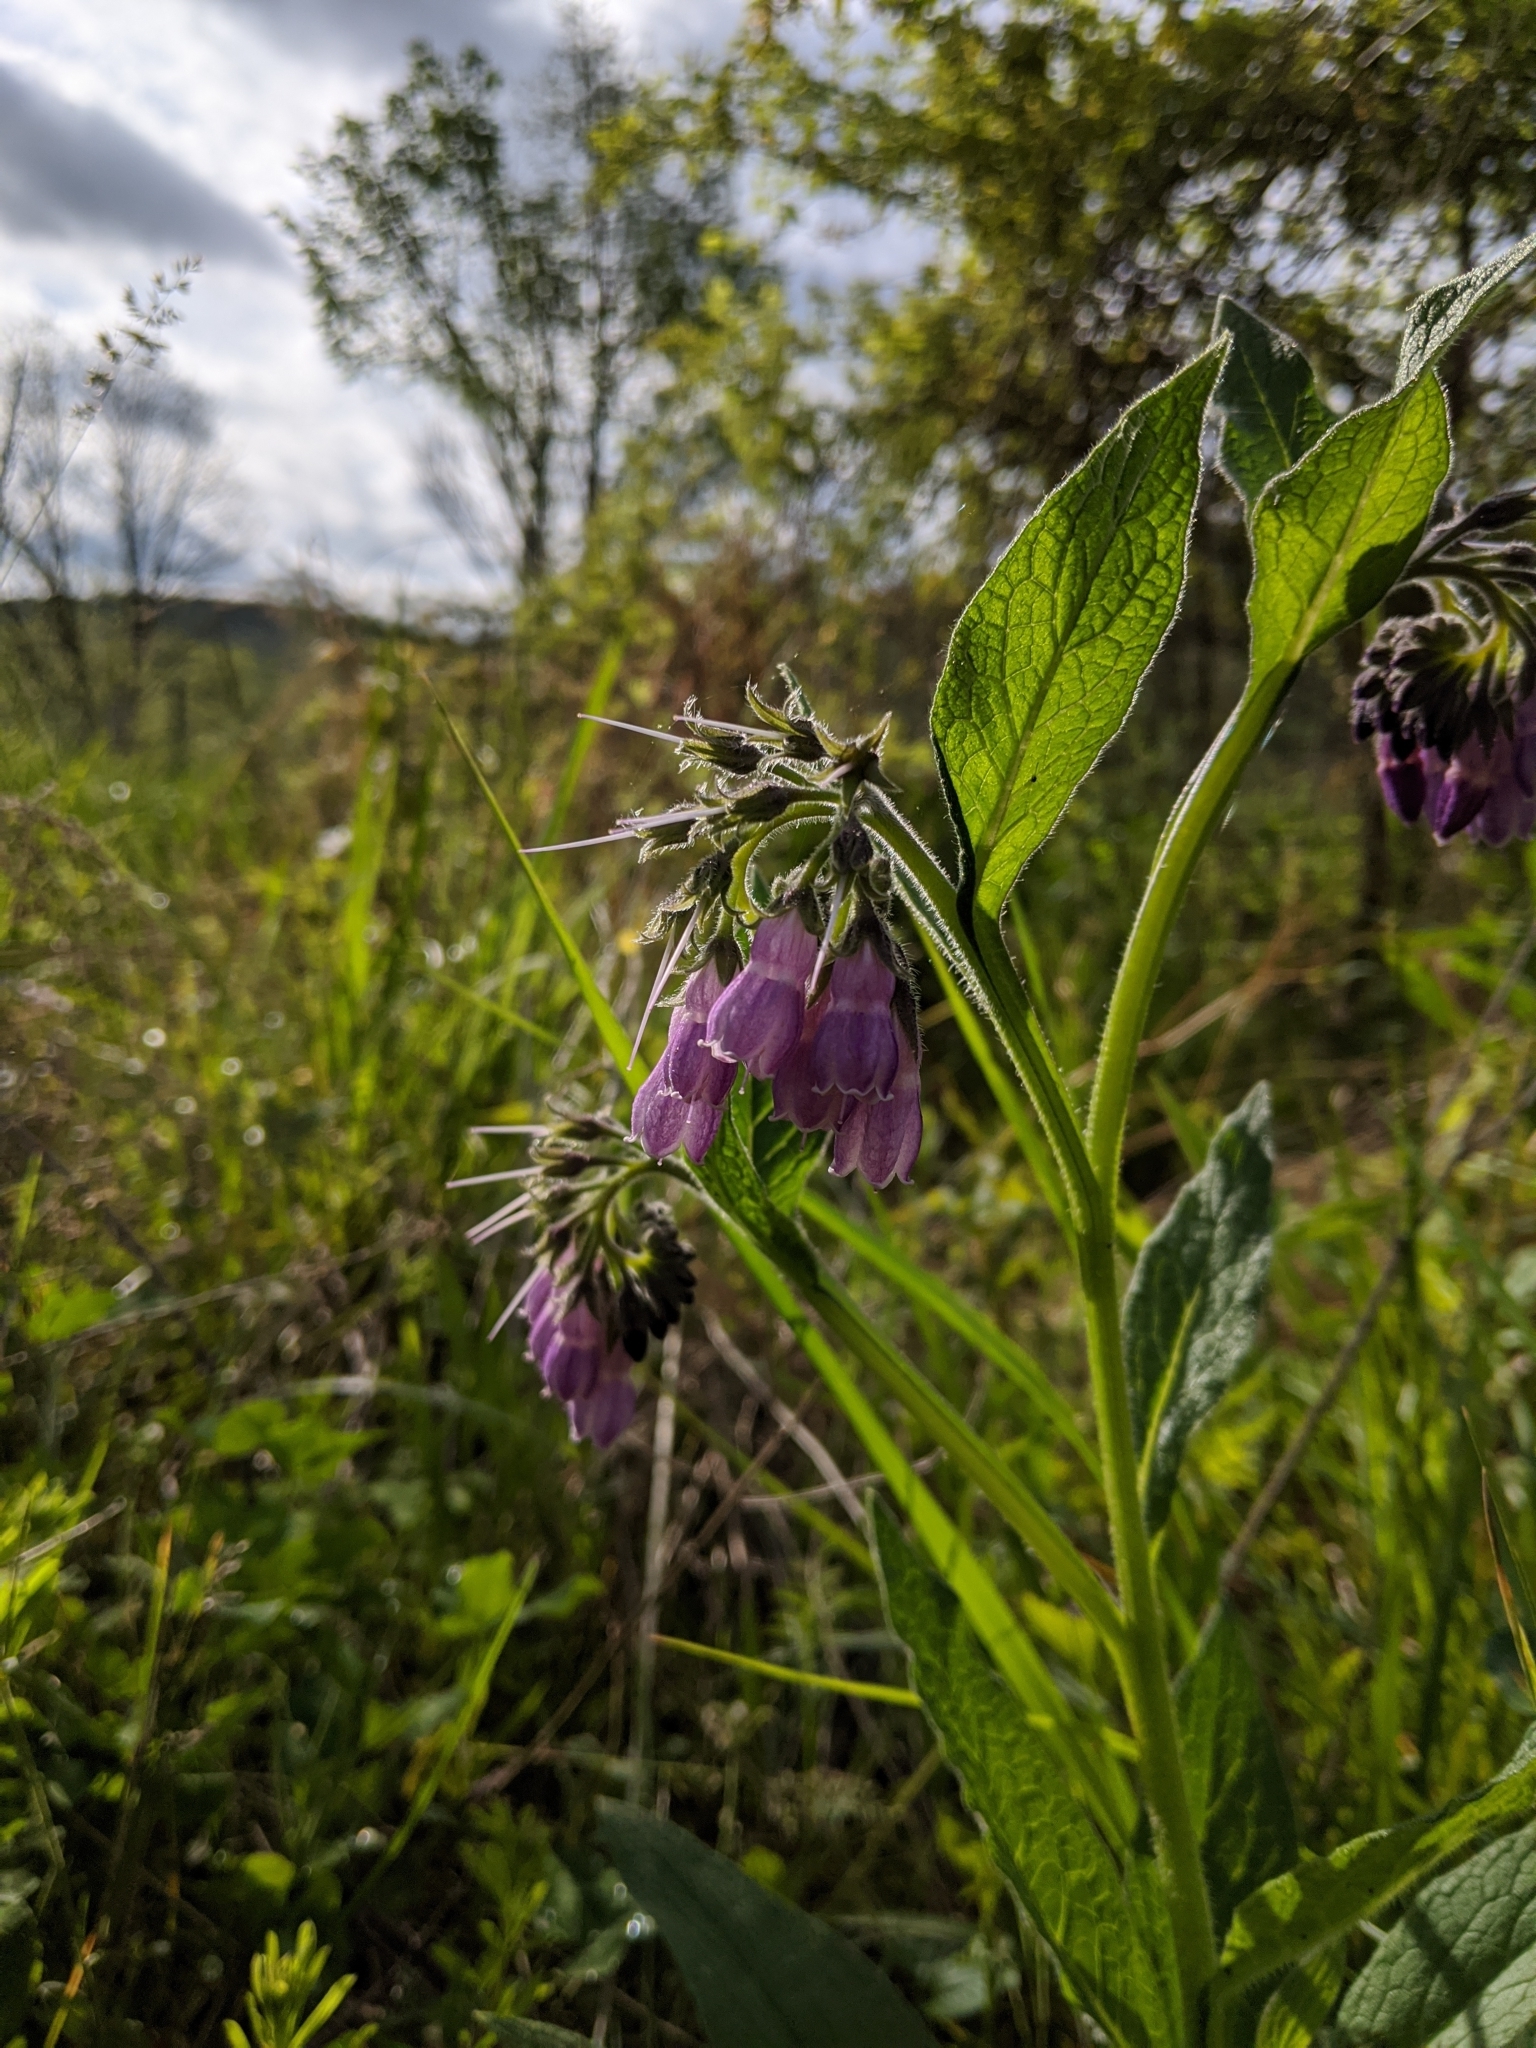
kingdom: Plantae
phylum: Tracheophyta
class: Magnoliopsida
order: Boraginales
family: Boraginaceae
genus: Symphytum
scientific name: Symphytum officinale
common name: Common comfrey
